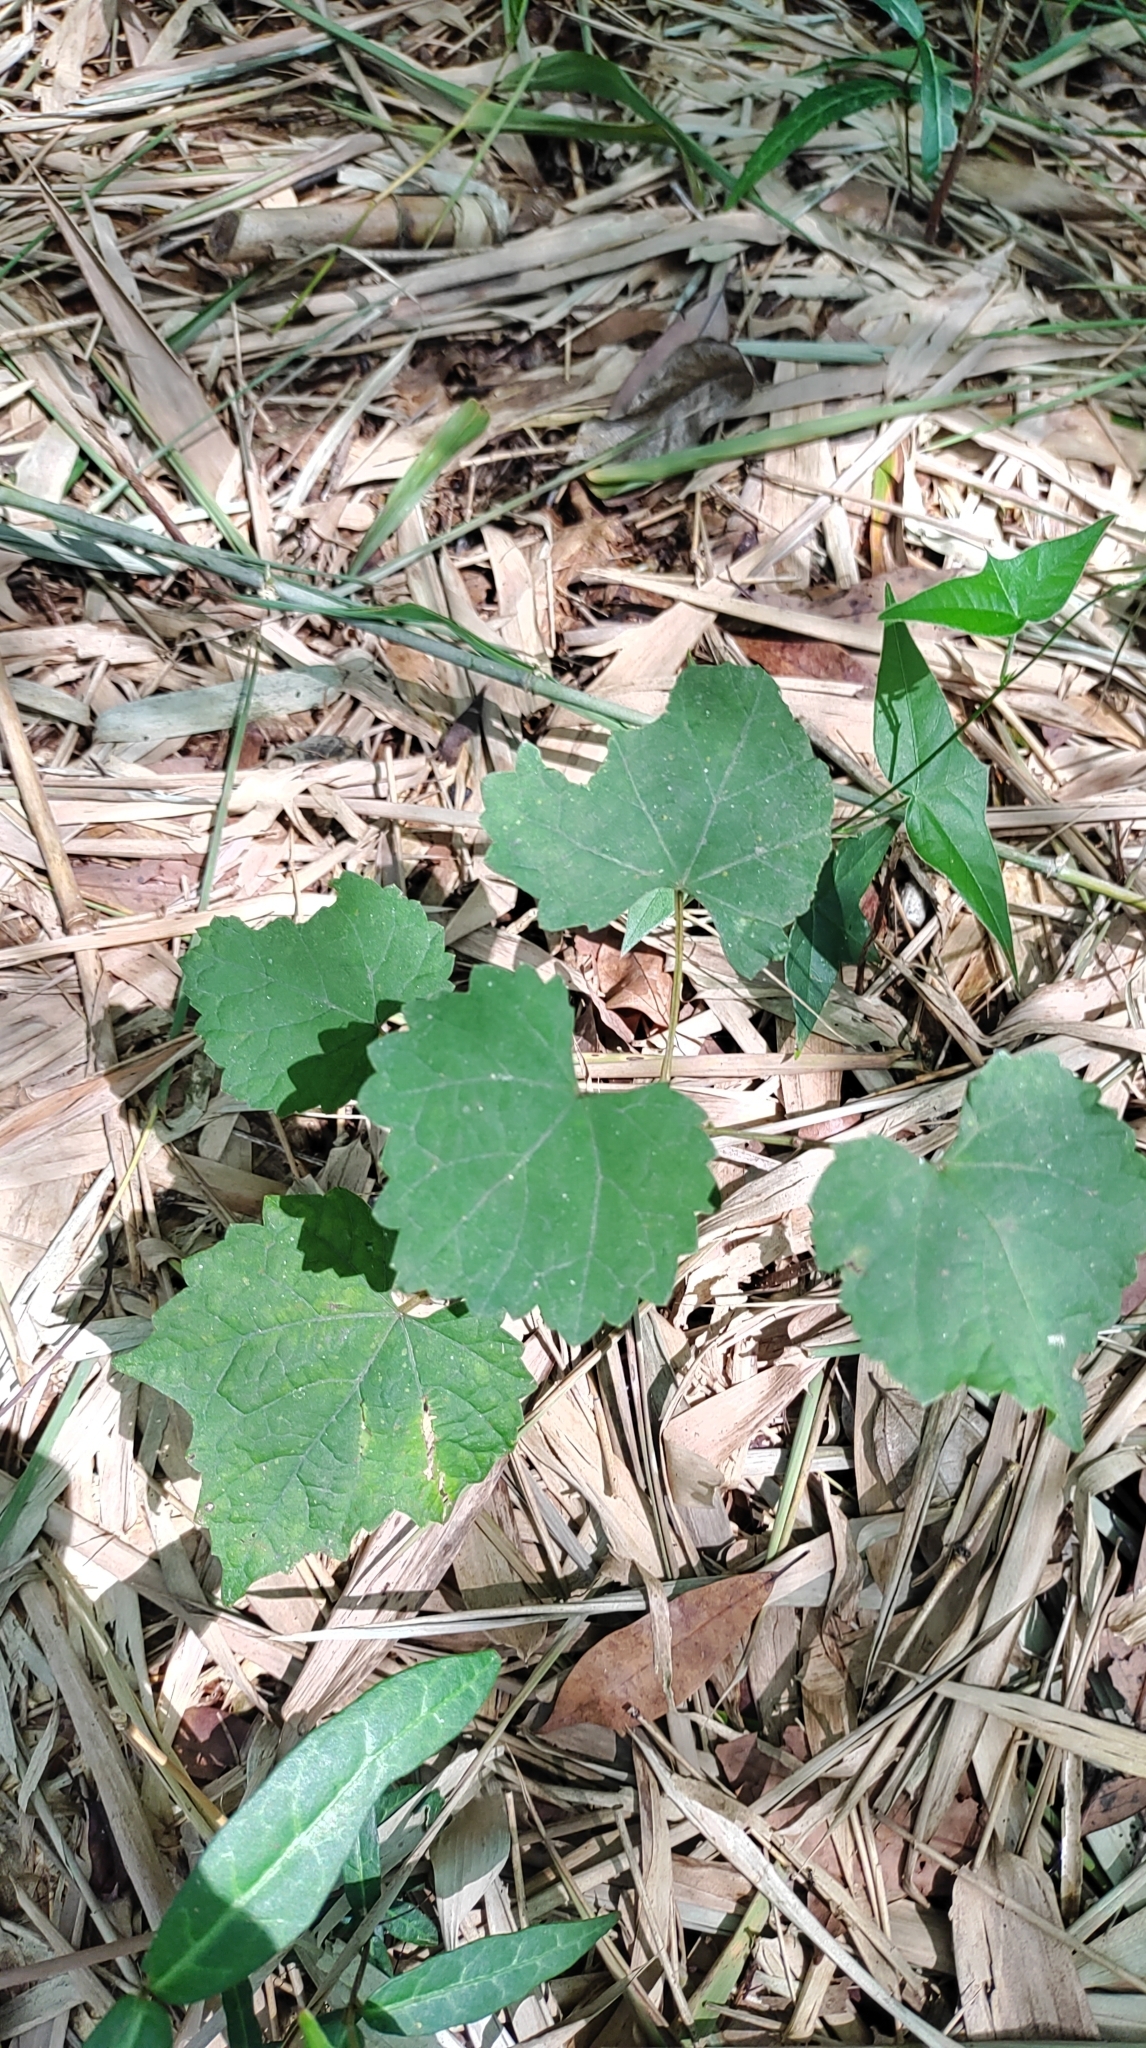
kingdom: Plantae
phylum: Tracheophyta
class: Magnoliopsida
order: Vitales
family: Vitaceae
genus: Ampelopsis
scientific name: Ampelopsis glandulosa
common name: Amur peppervine
